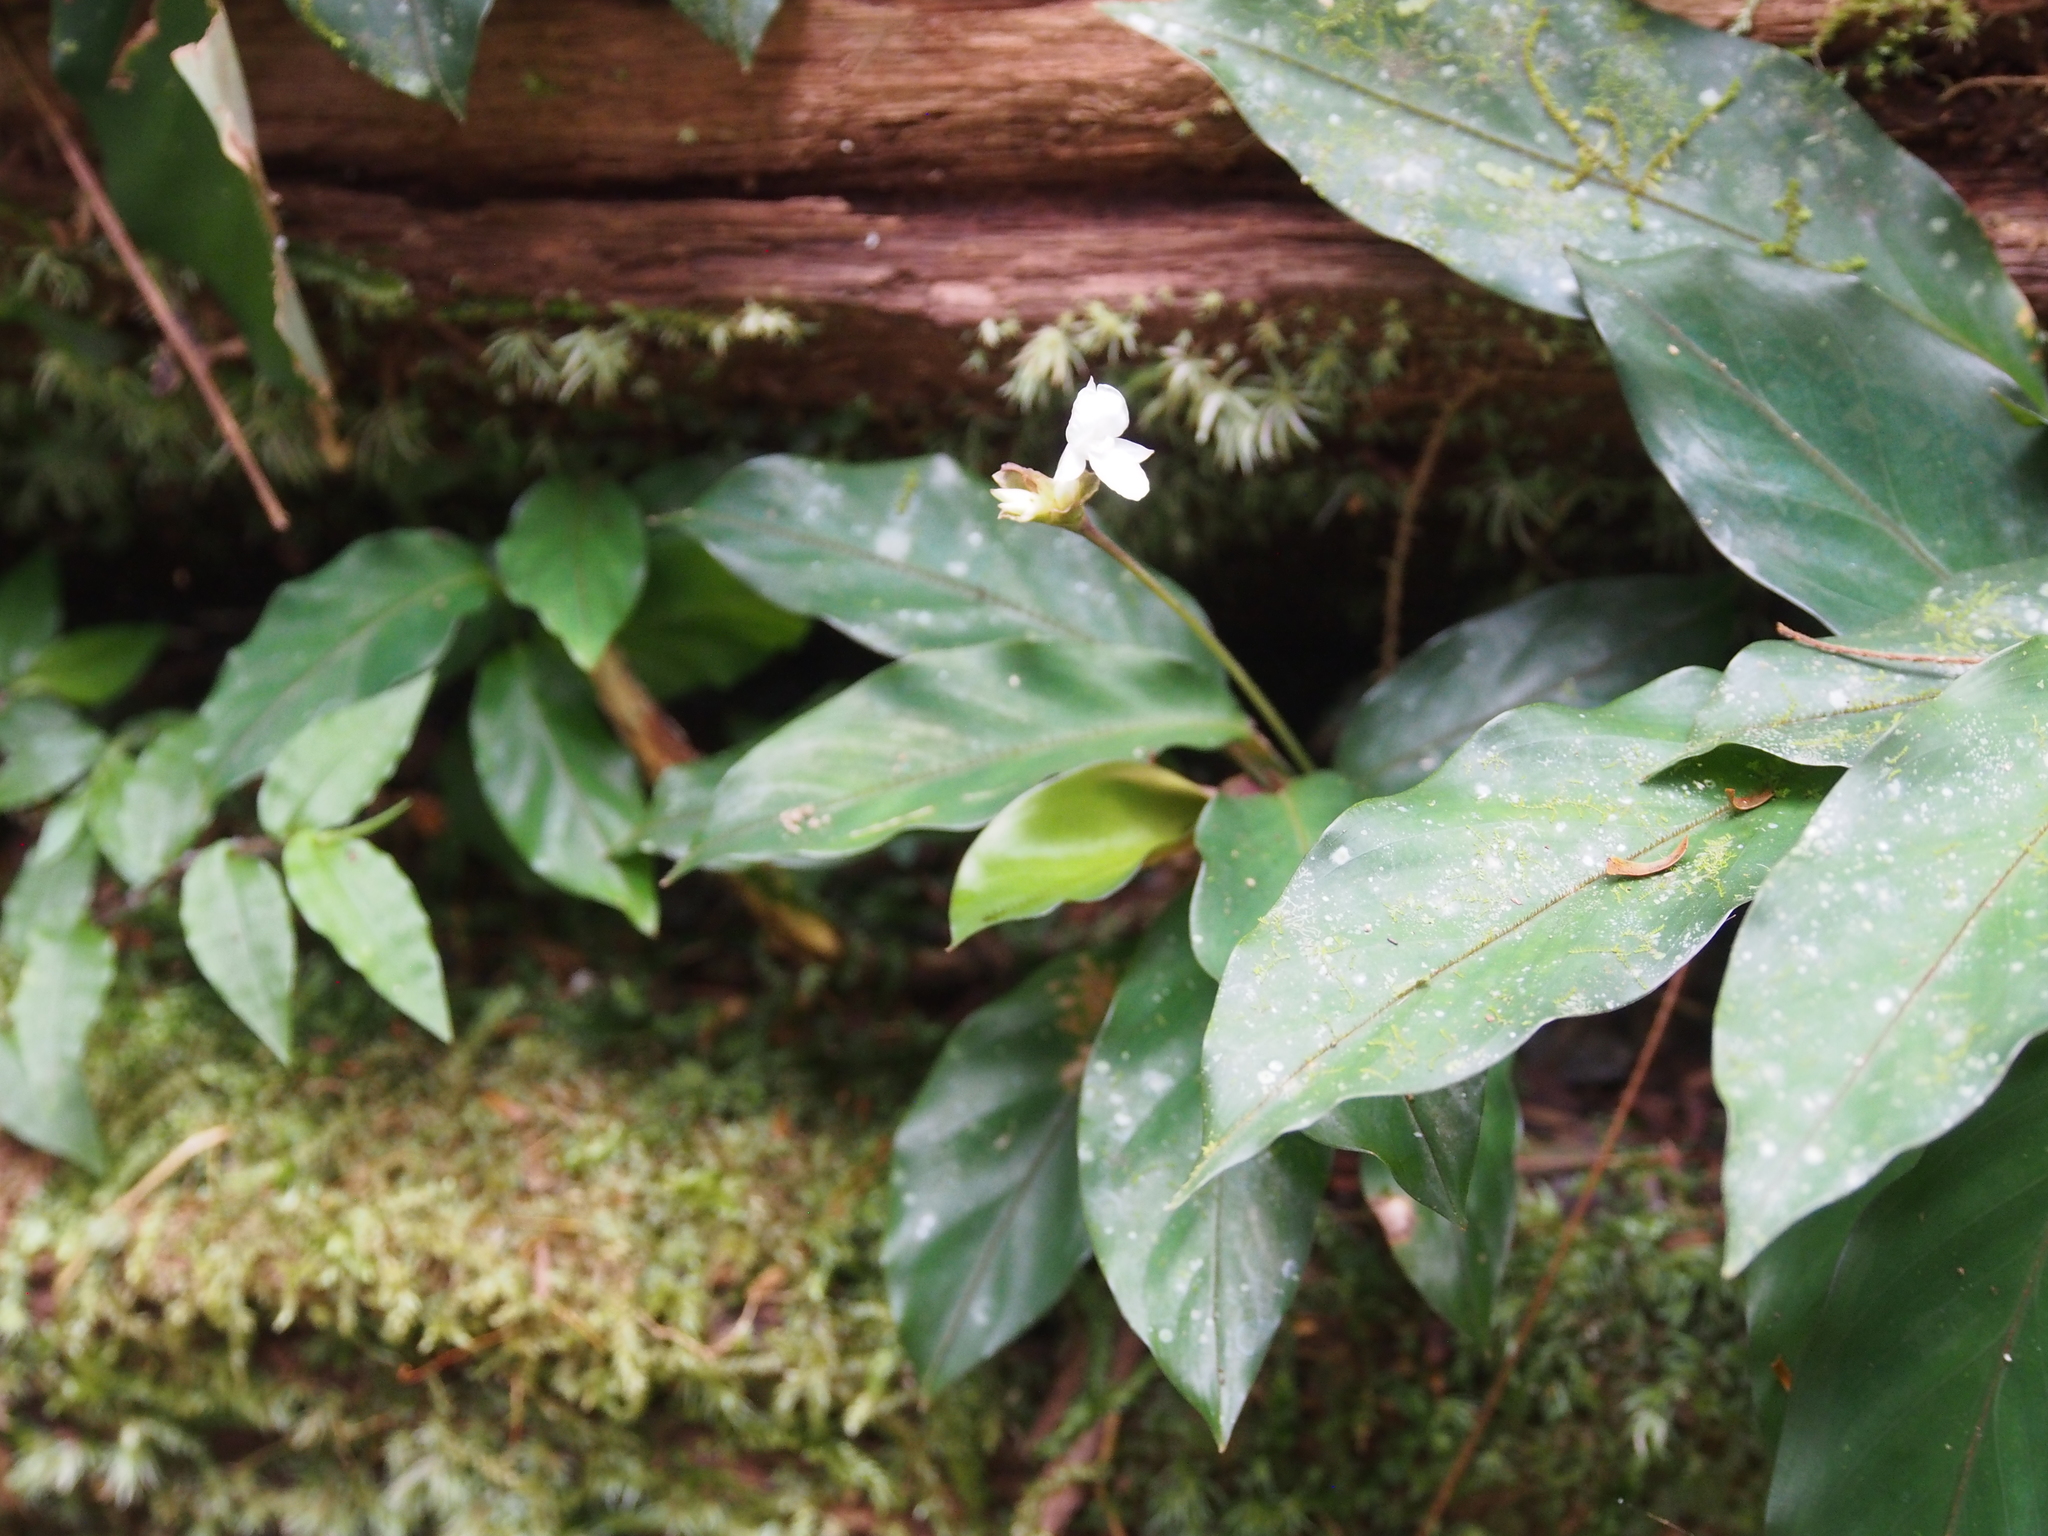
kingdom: Plantae
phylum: Tracheophyta
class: Liliopsida
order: Zingiberales
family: Marantaceae
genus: Goeppertia
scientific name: Goeppertia micans
